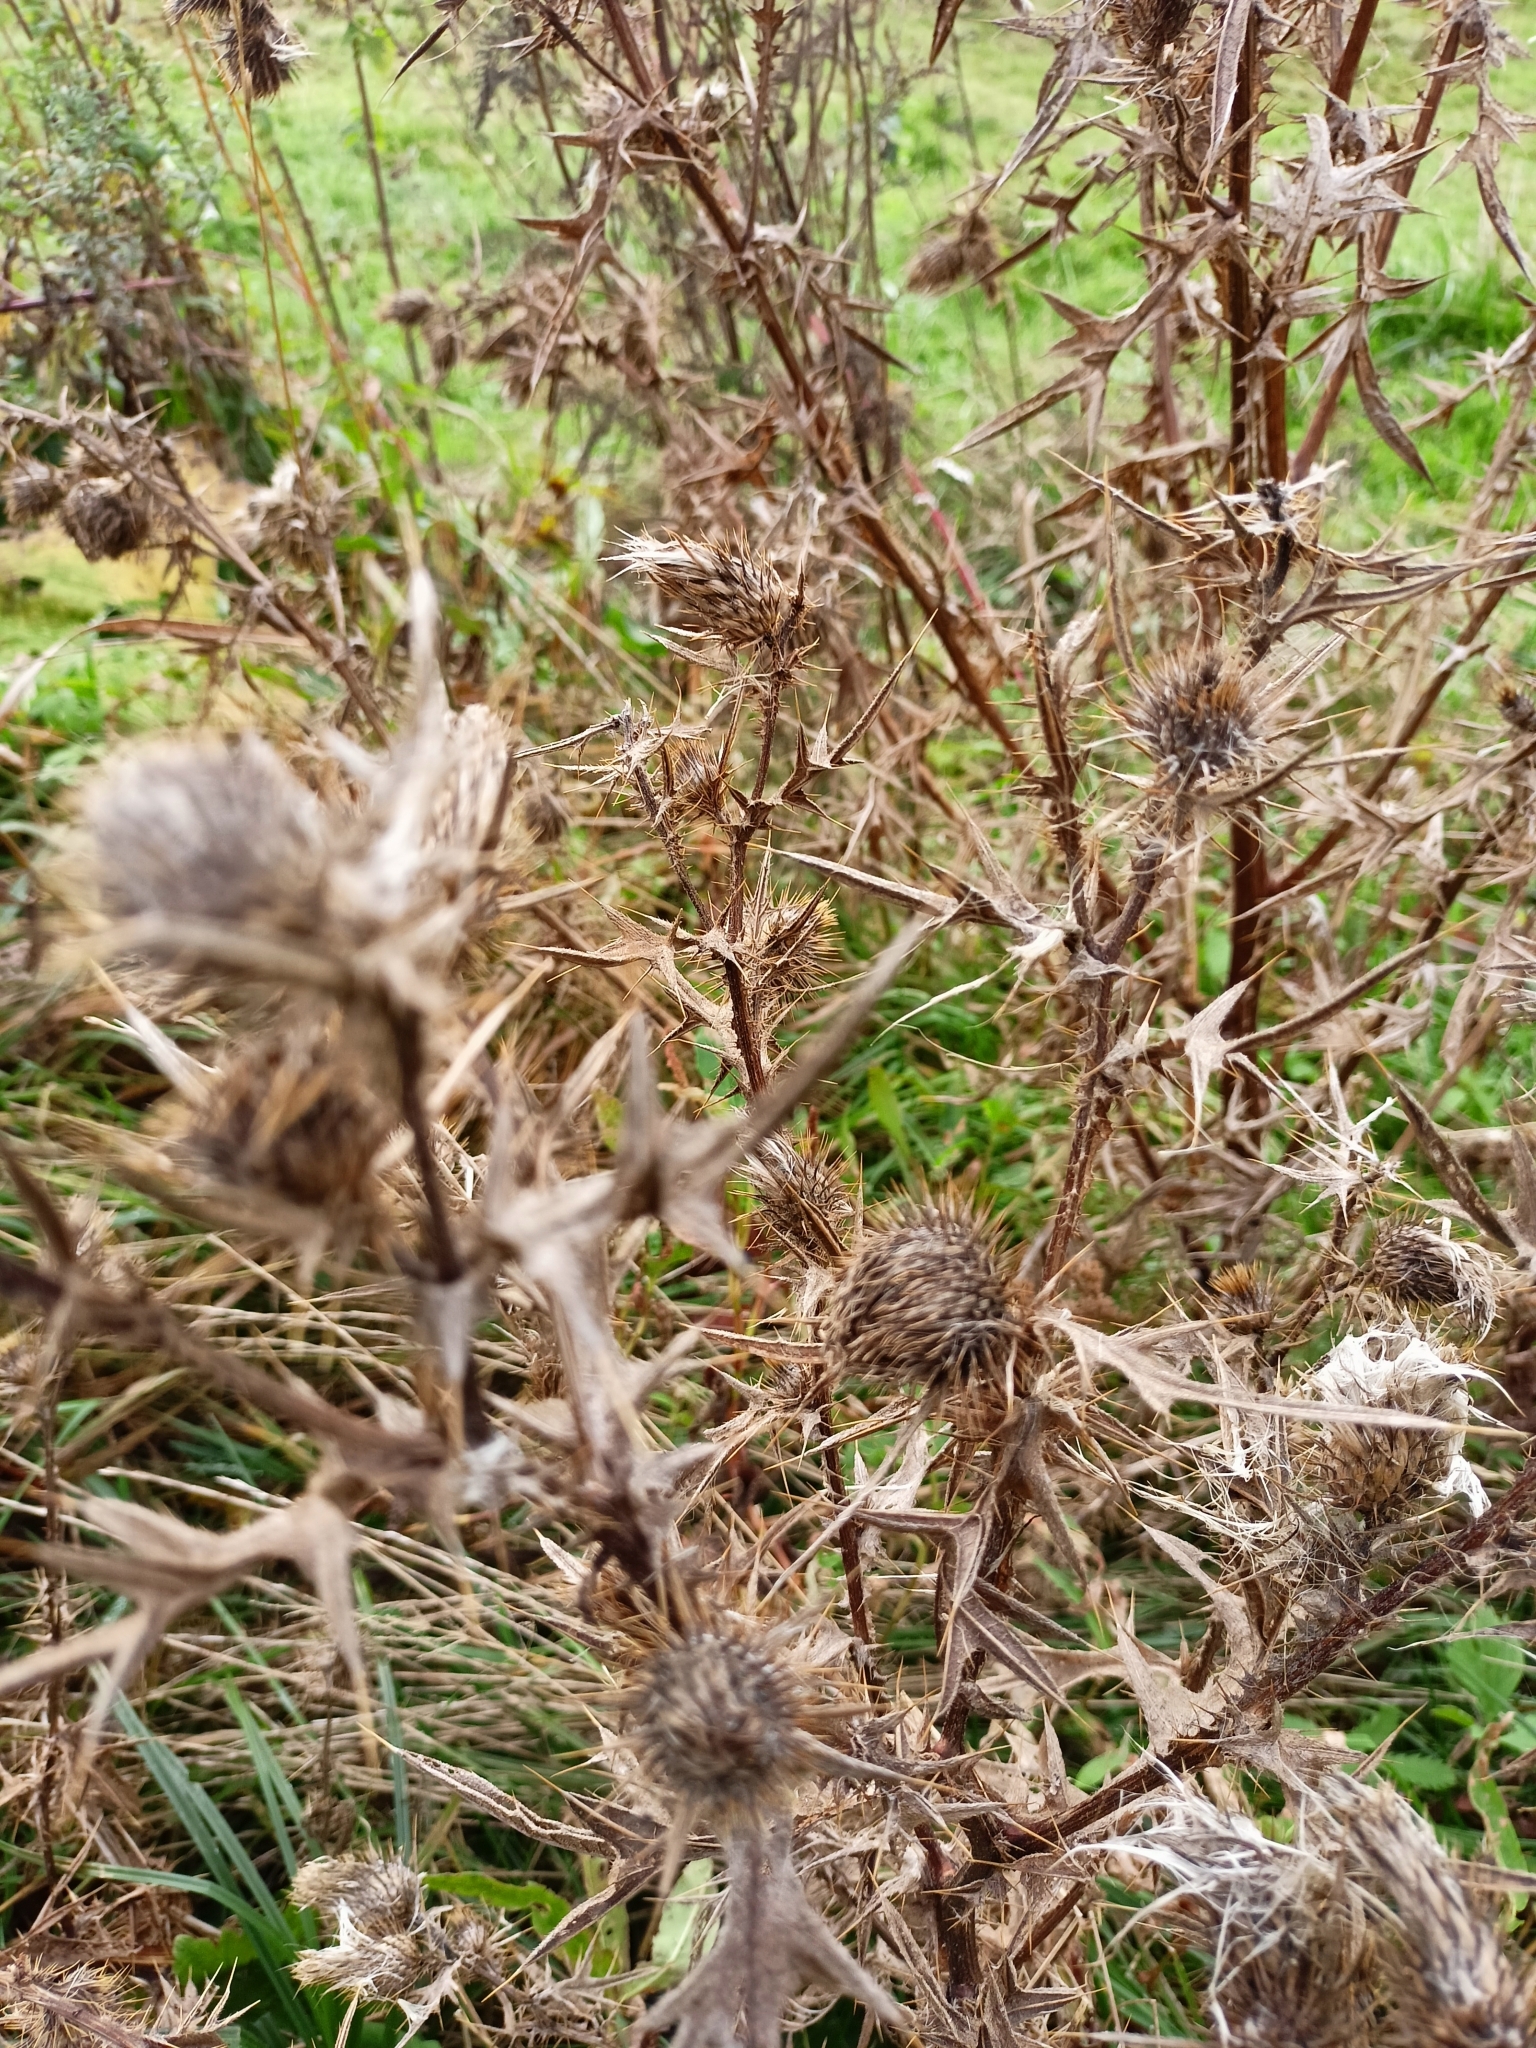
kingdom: Plantae
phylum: Tracheophyta
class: Magnoliopsida
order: Asterales
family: Asteraceae
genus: Cirsium
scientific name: Cirsium vulgare
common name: Bull thistle
